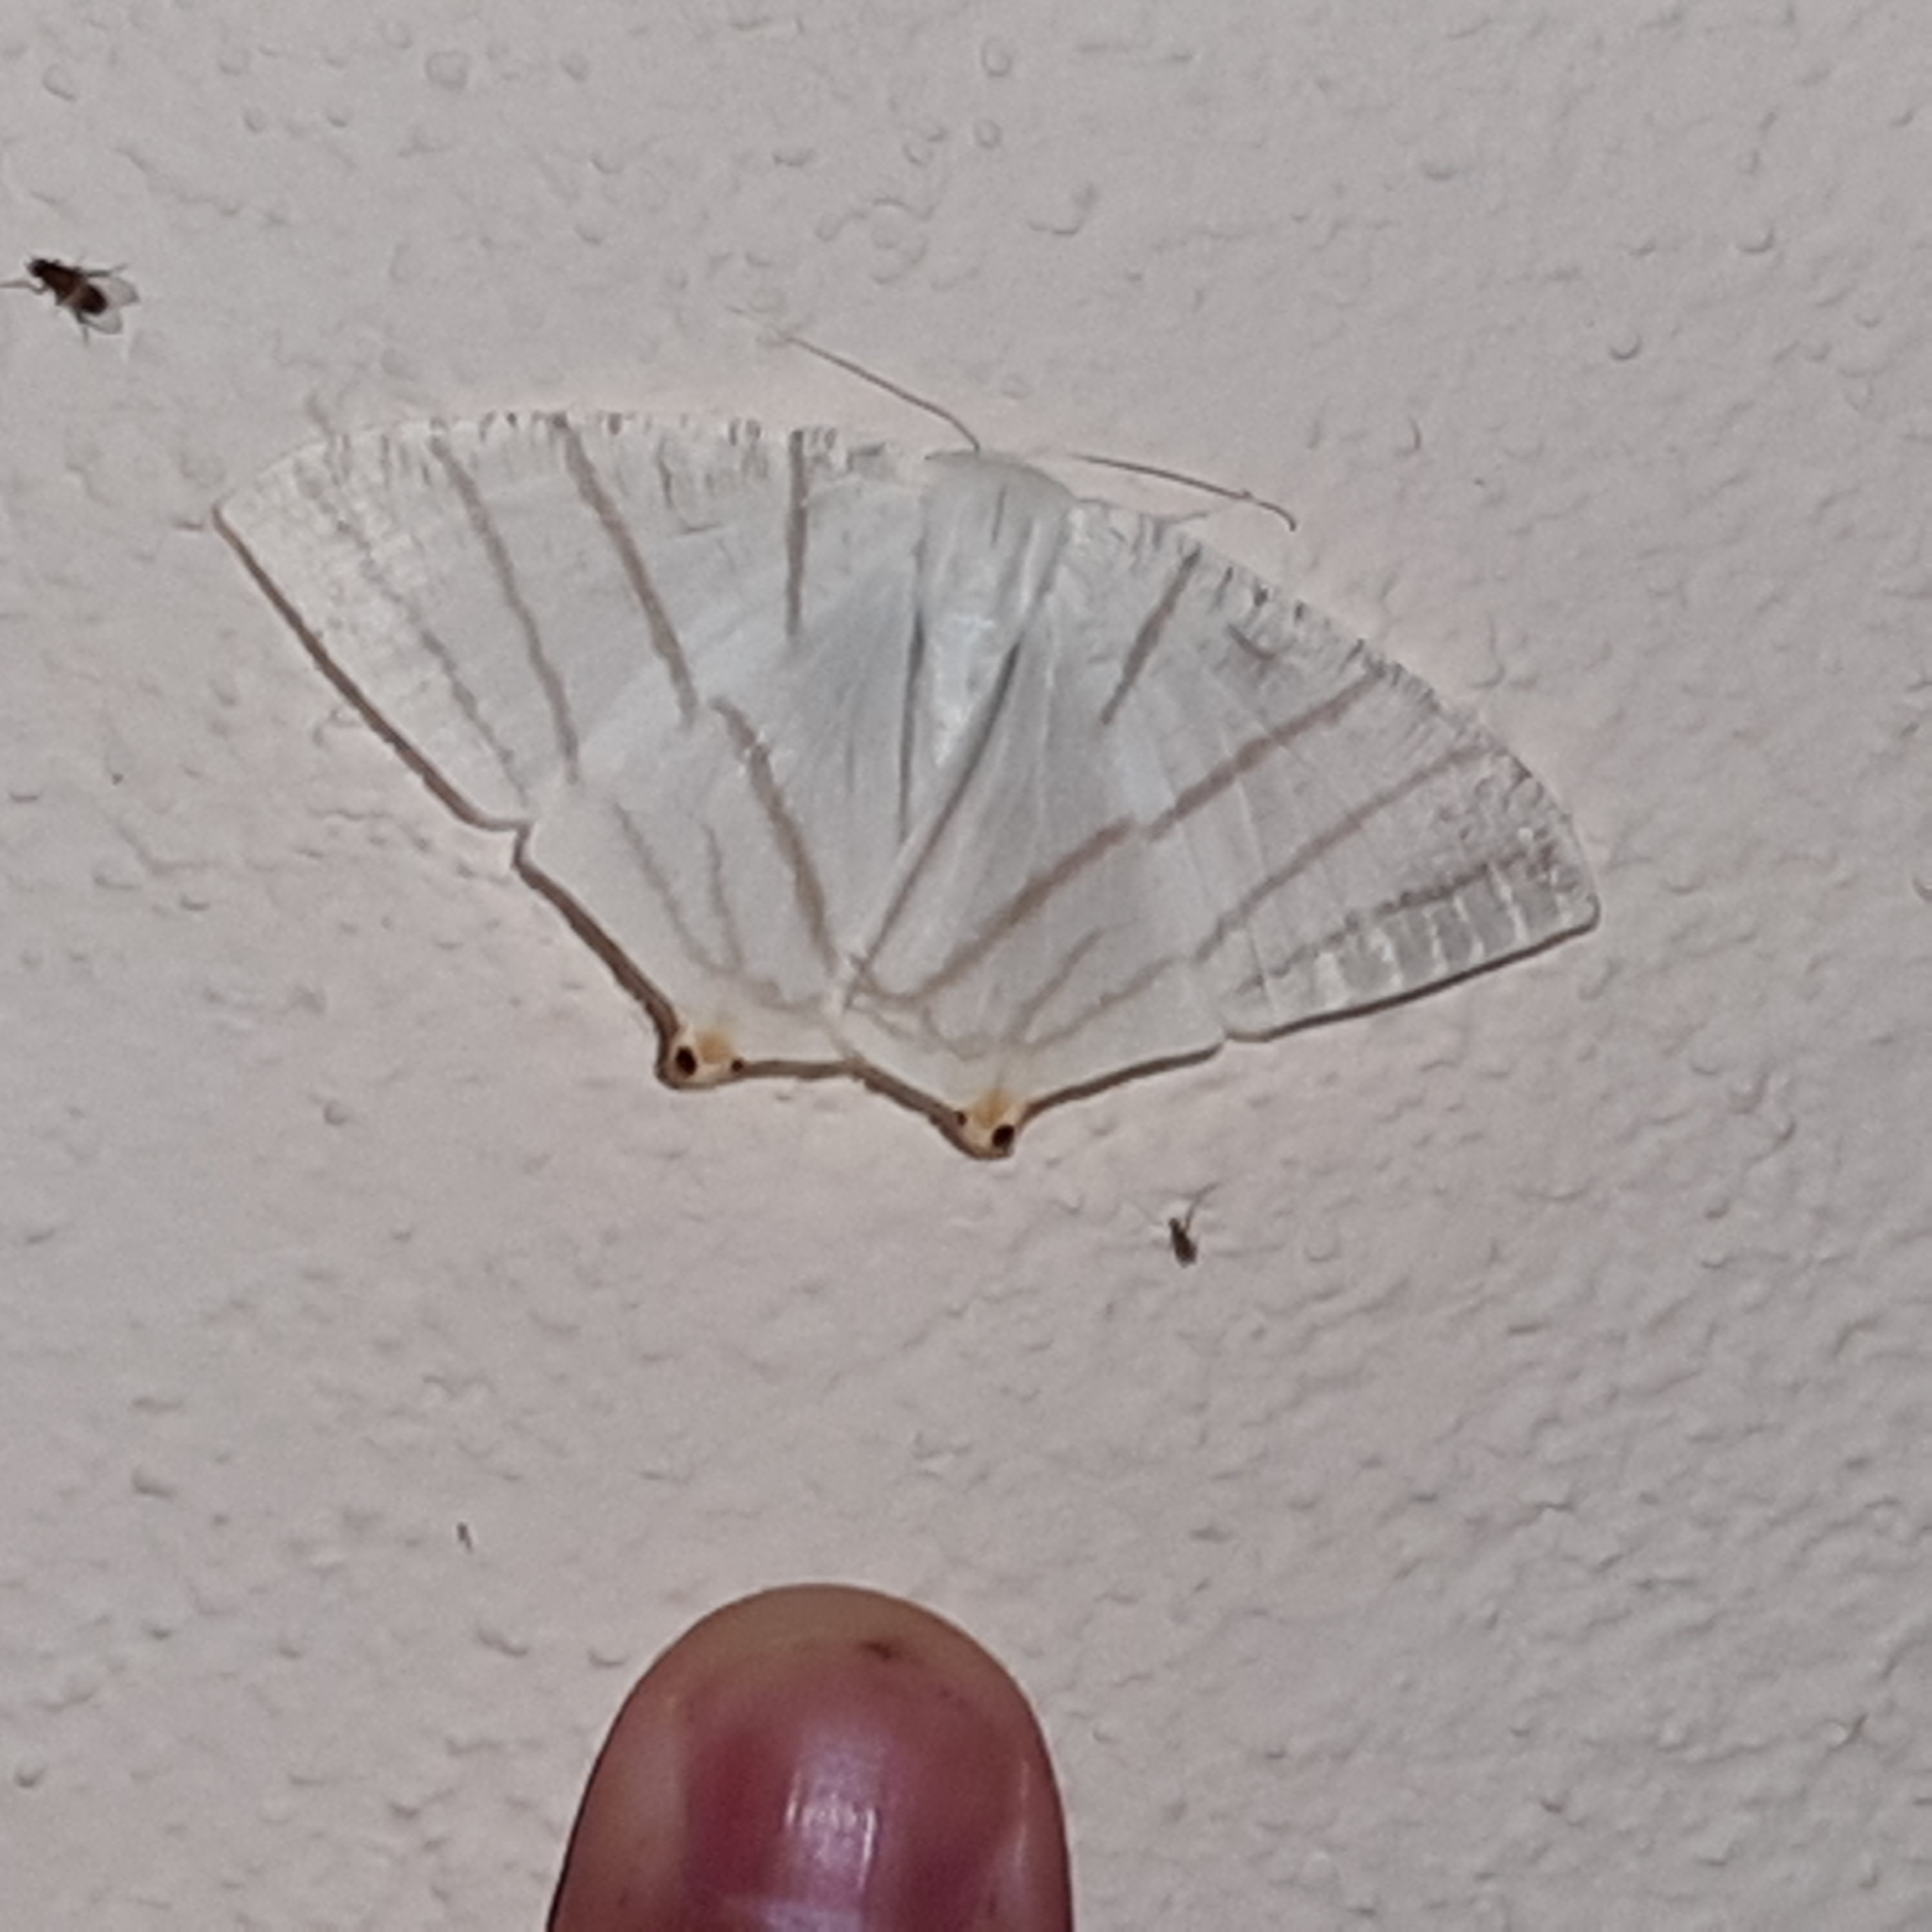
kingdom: Animalia
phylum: Arthropoda
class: Insecta
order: Lepidoptera
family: Geometridae
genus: Brachurapteryx
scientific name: Brachurapteryx tesserata
